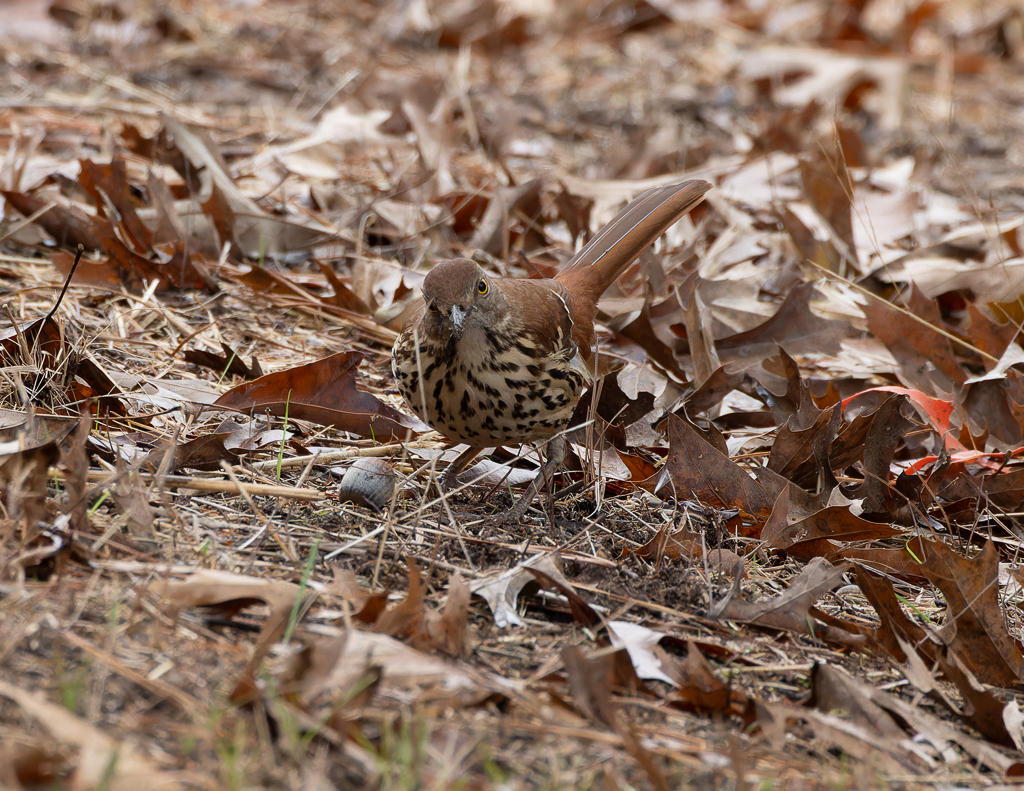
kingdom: Animalia
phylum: Chordata
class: Aves
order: Passeriformes
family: Mimidae
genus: Toxostoma
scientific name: Toxostoma rufum
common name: Brown thrasher
